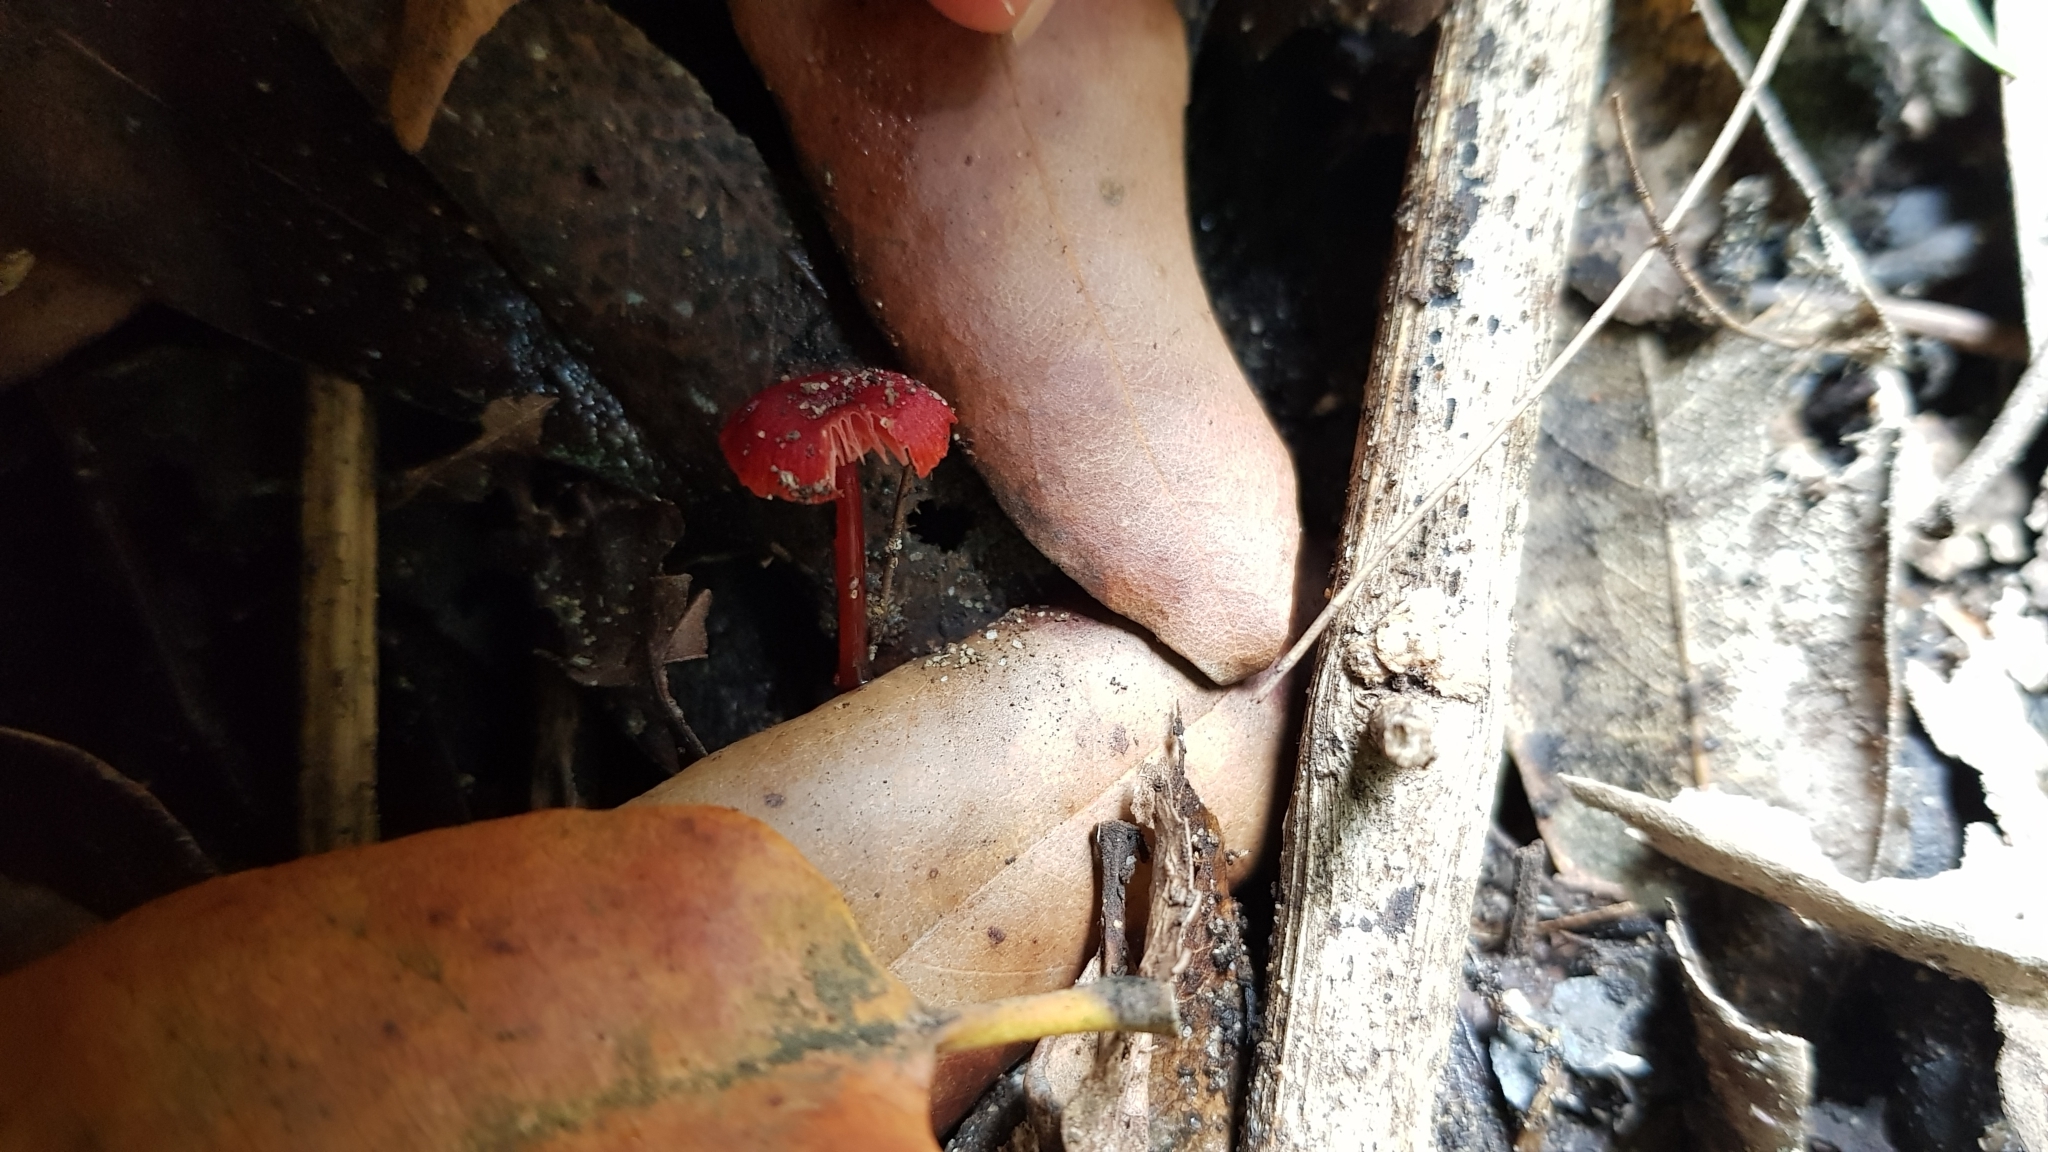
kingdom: Fungi
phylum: Basidiomycota
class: Agaricomycetes
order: Agaricales
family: Mycenaceae
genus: Cruentomycena
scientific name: Cruentomycena viscidocruenta
